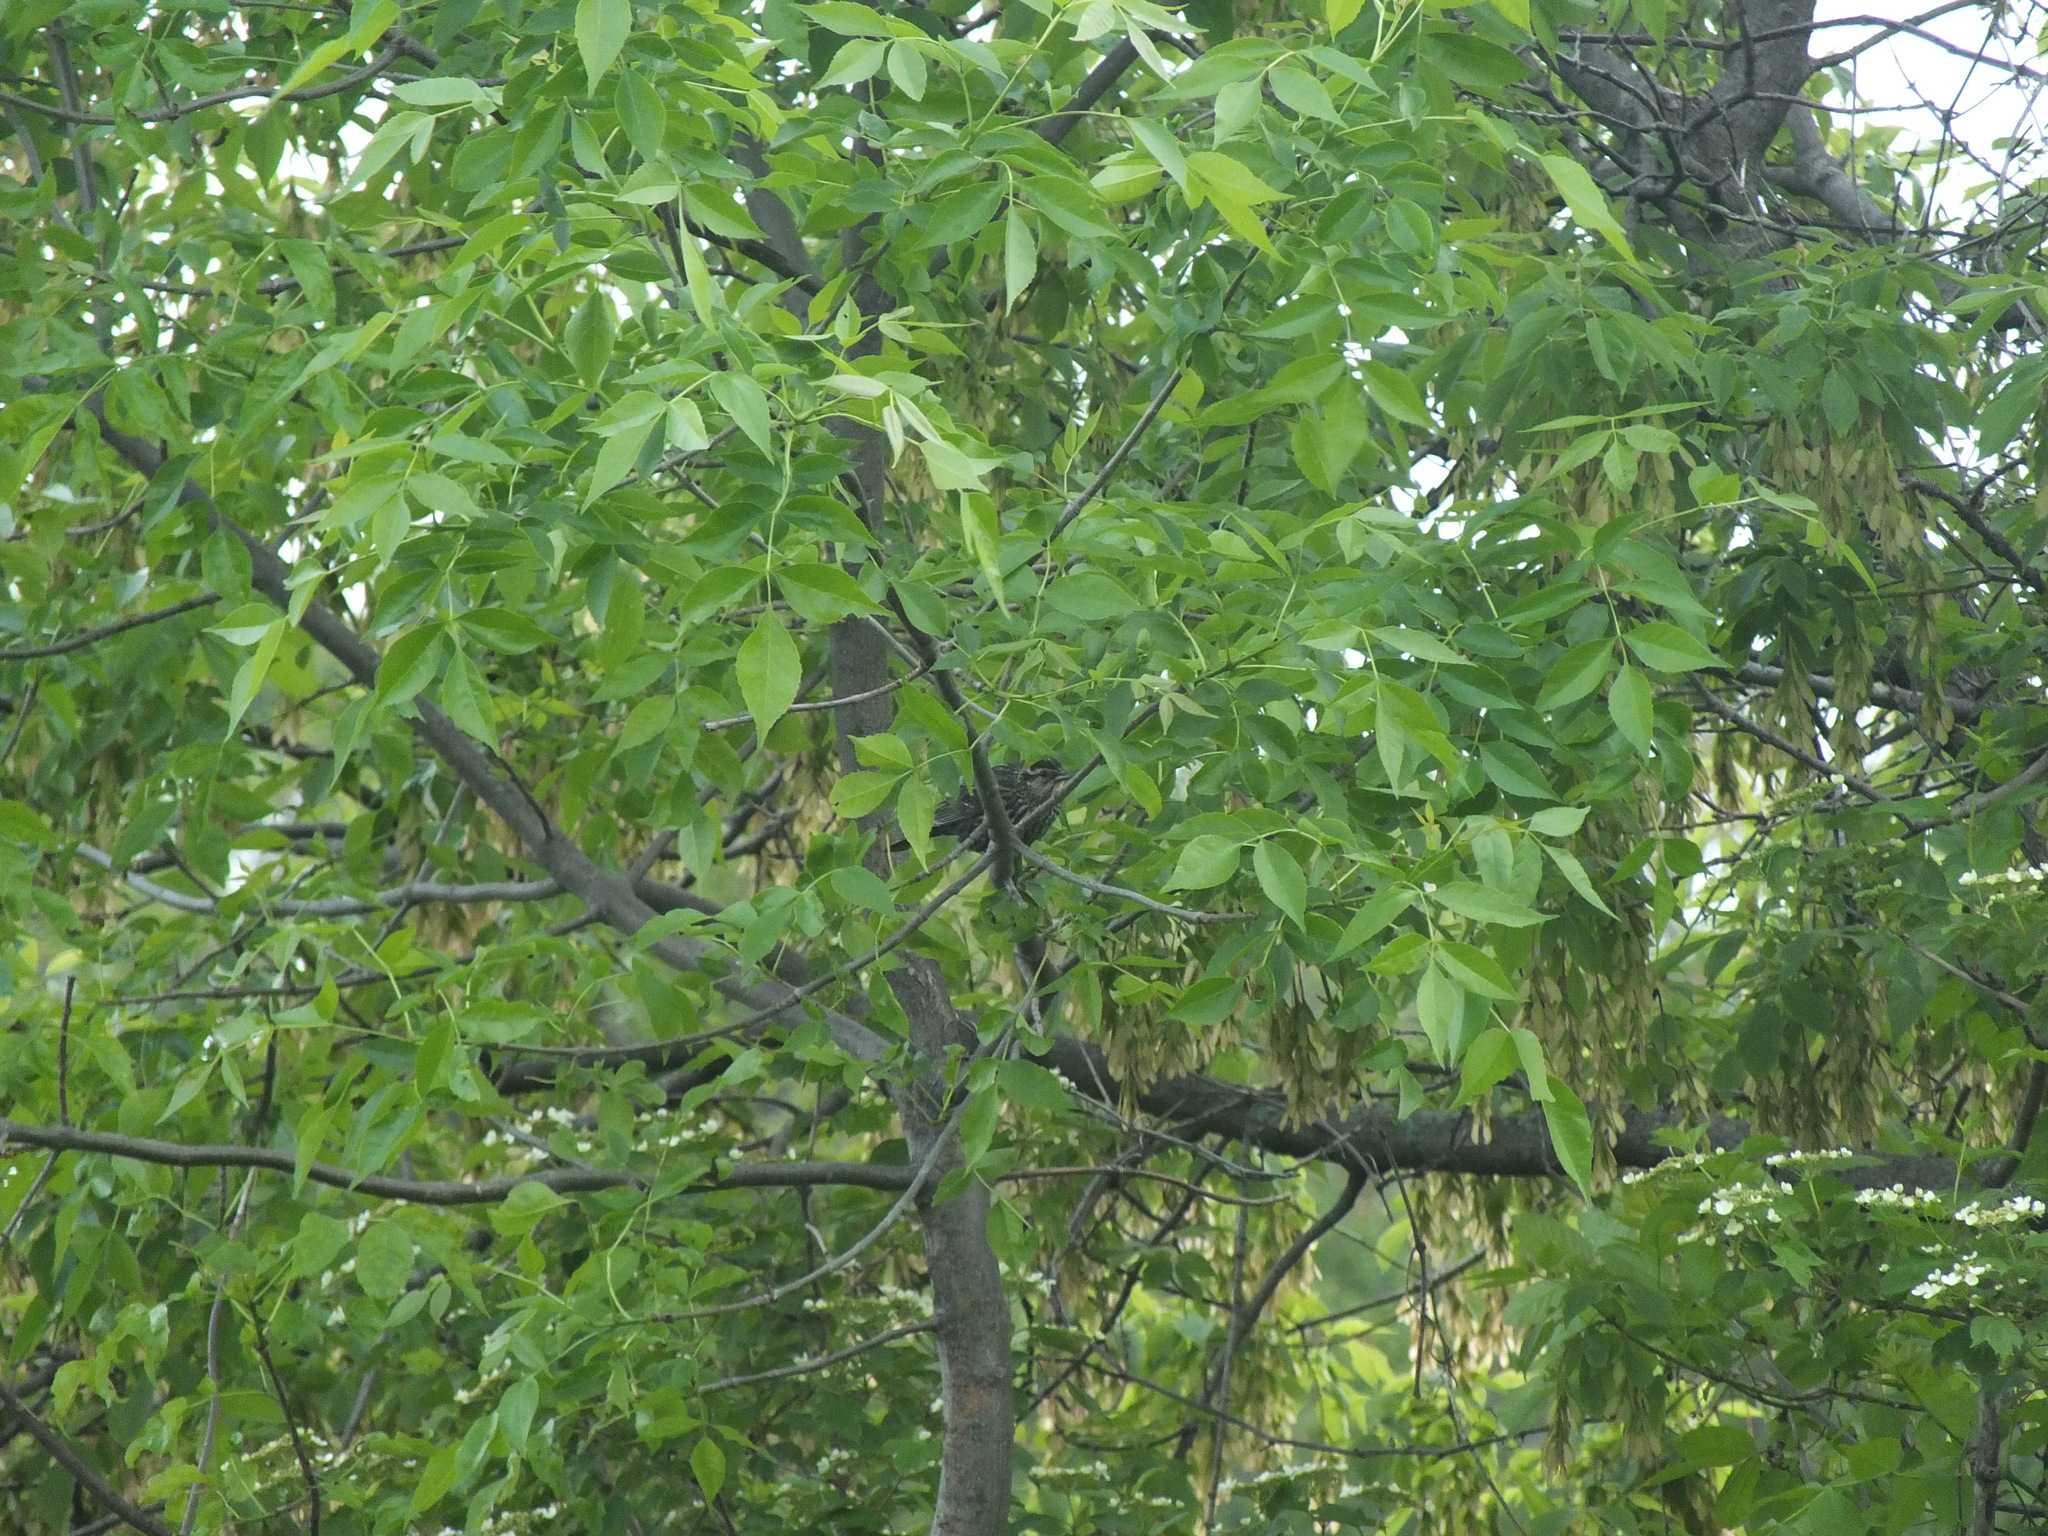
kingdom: Animalia
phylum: Chordata
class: Aves
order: Passeriformes
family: Icteridae
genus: Agelaius
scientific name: Agelaius phoeniceus
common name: Red-winged blackbird
